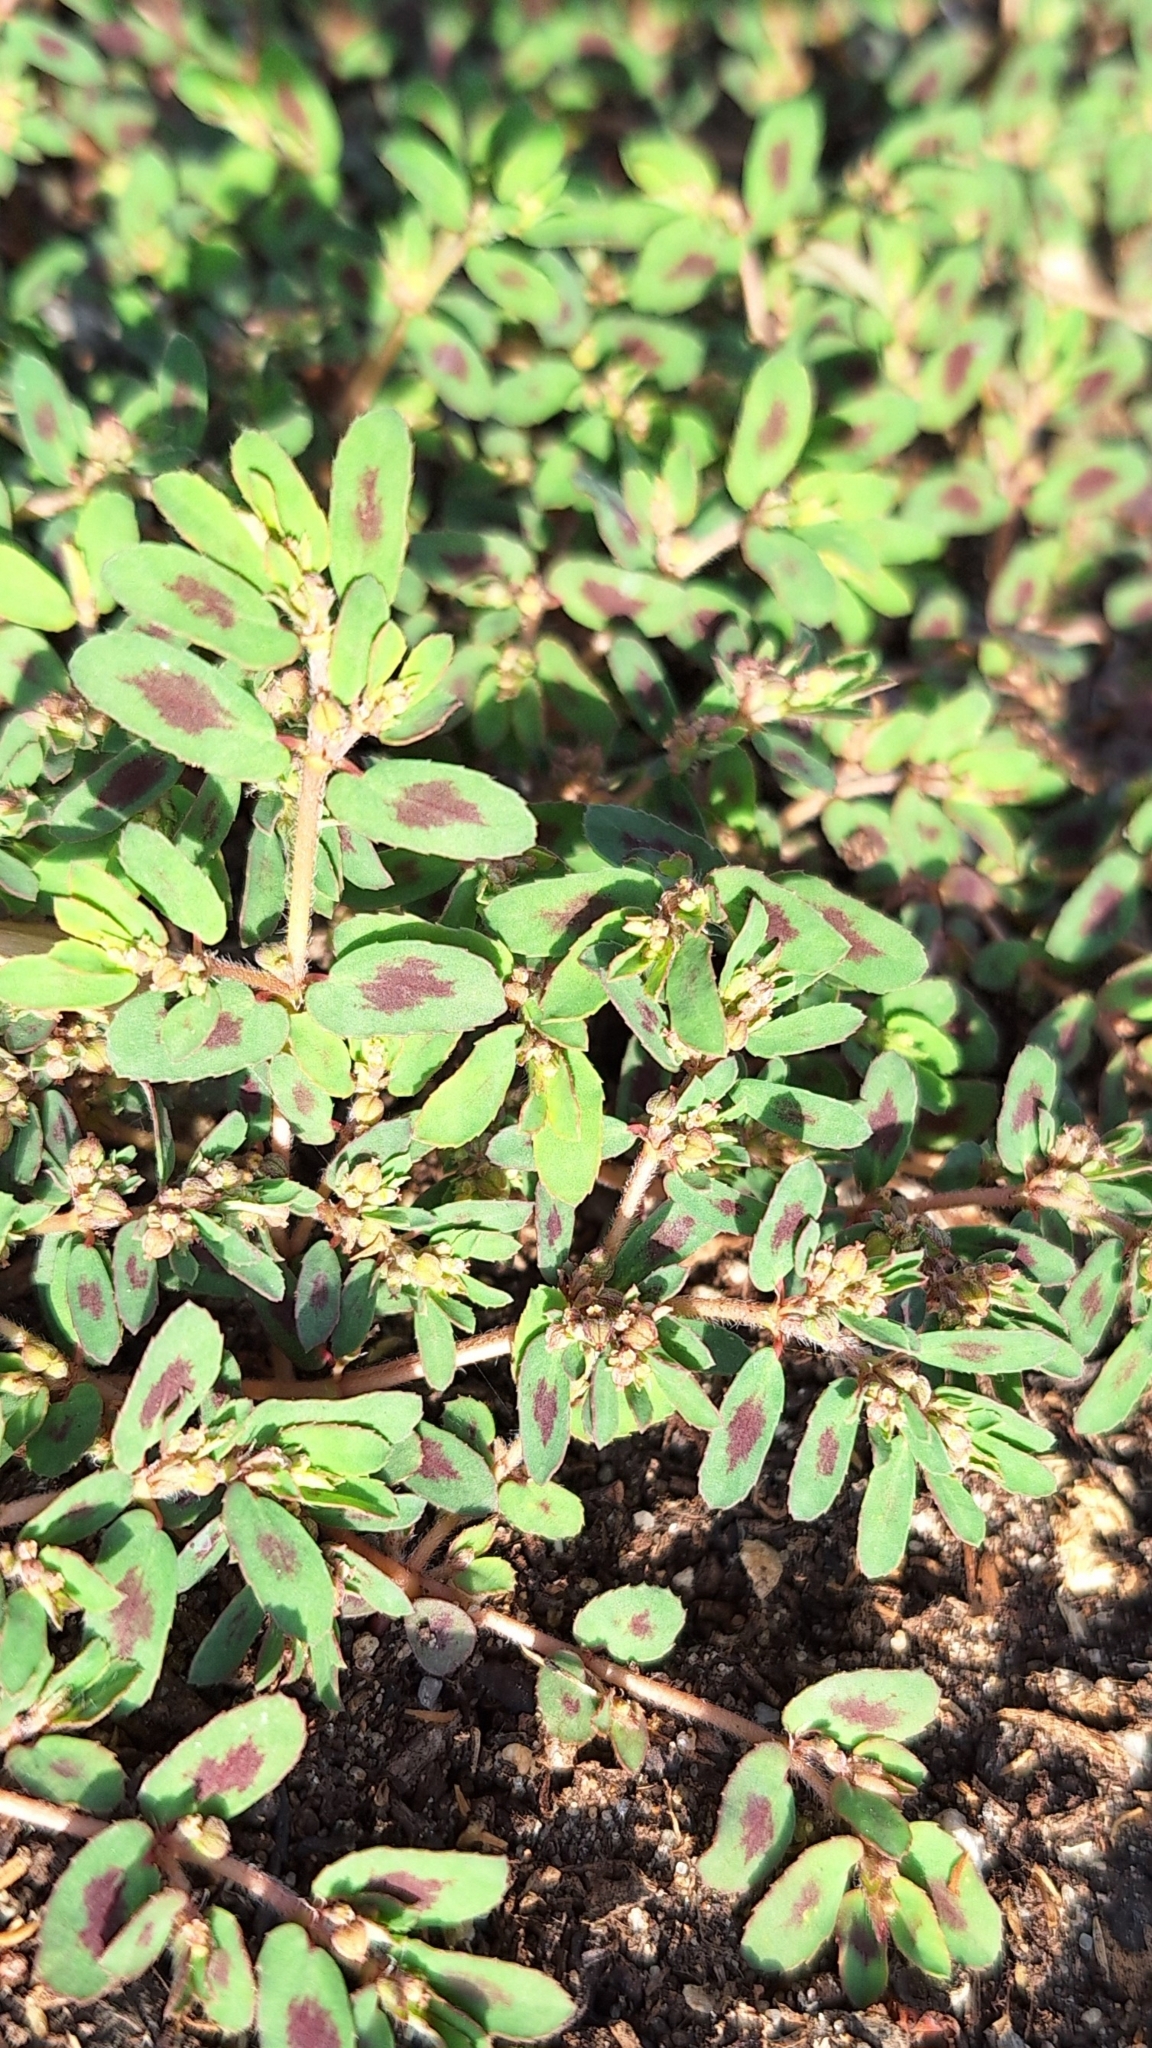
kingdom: Plantae
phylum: Tracheophyta
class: Magnoliopsida
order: Malpighiales
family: Euphorbiaceae
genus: Euphorbia
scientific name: Euphorbia maculata
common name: Spotted spurge
